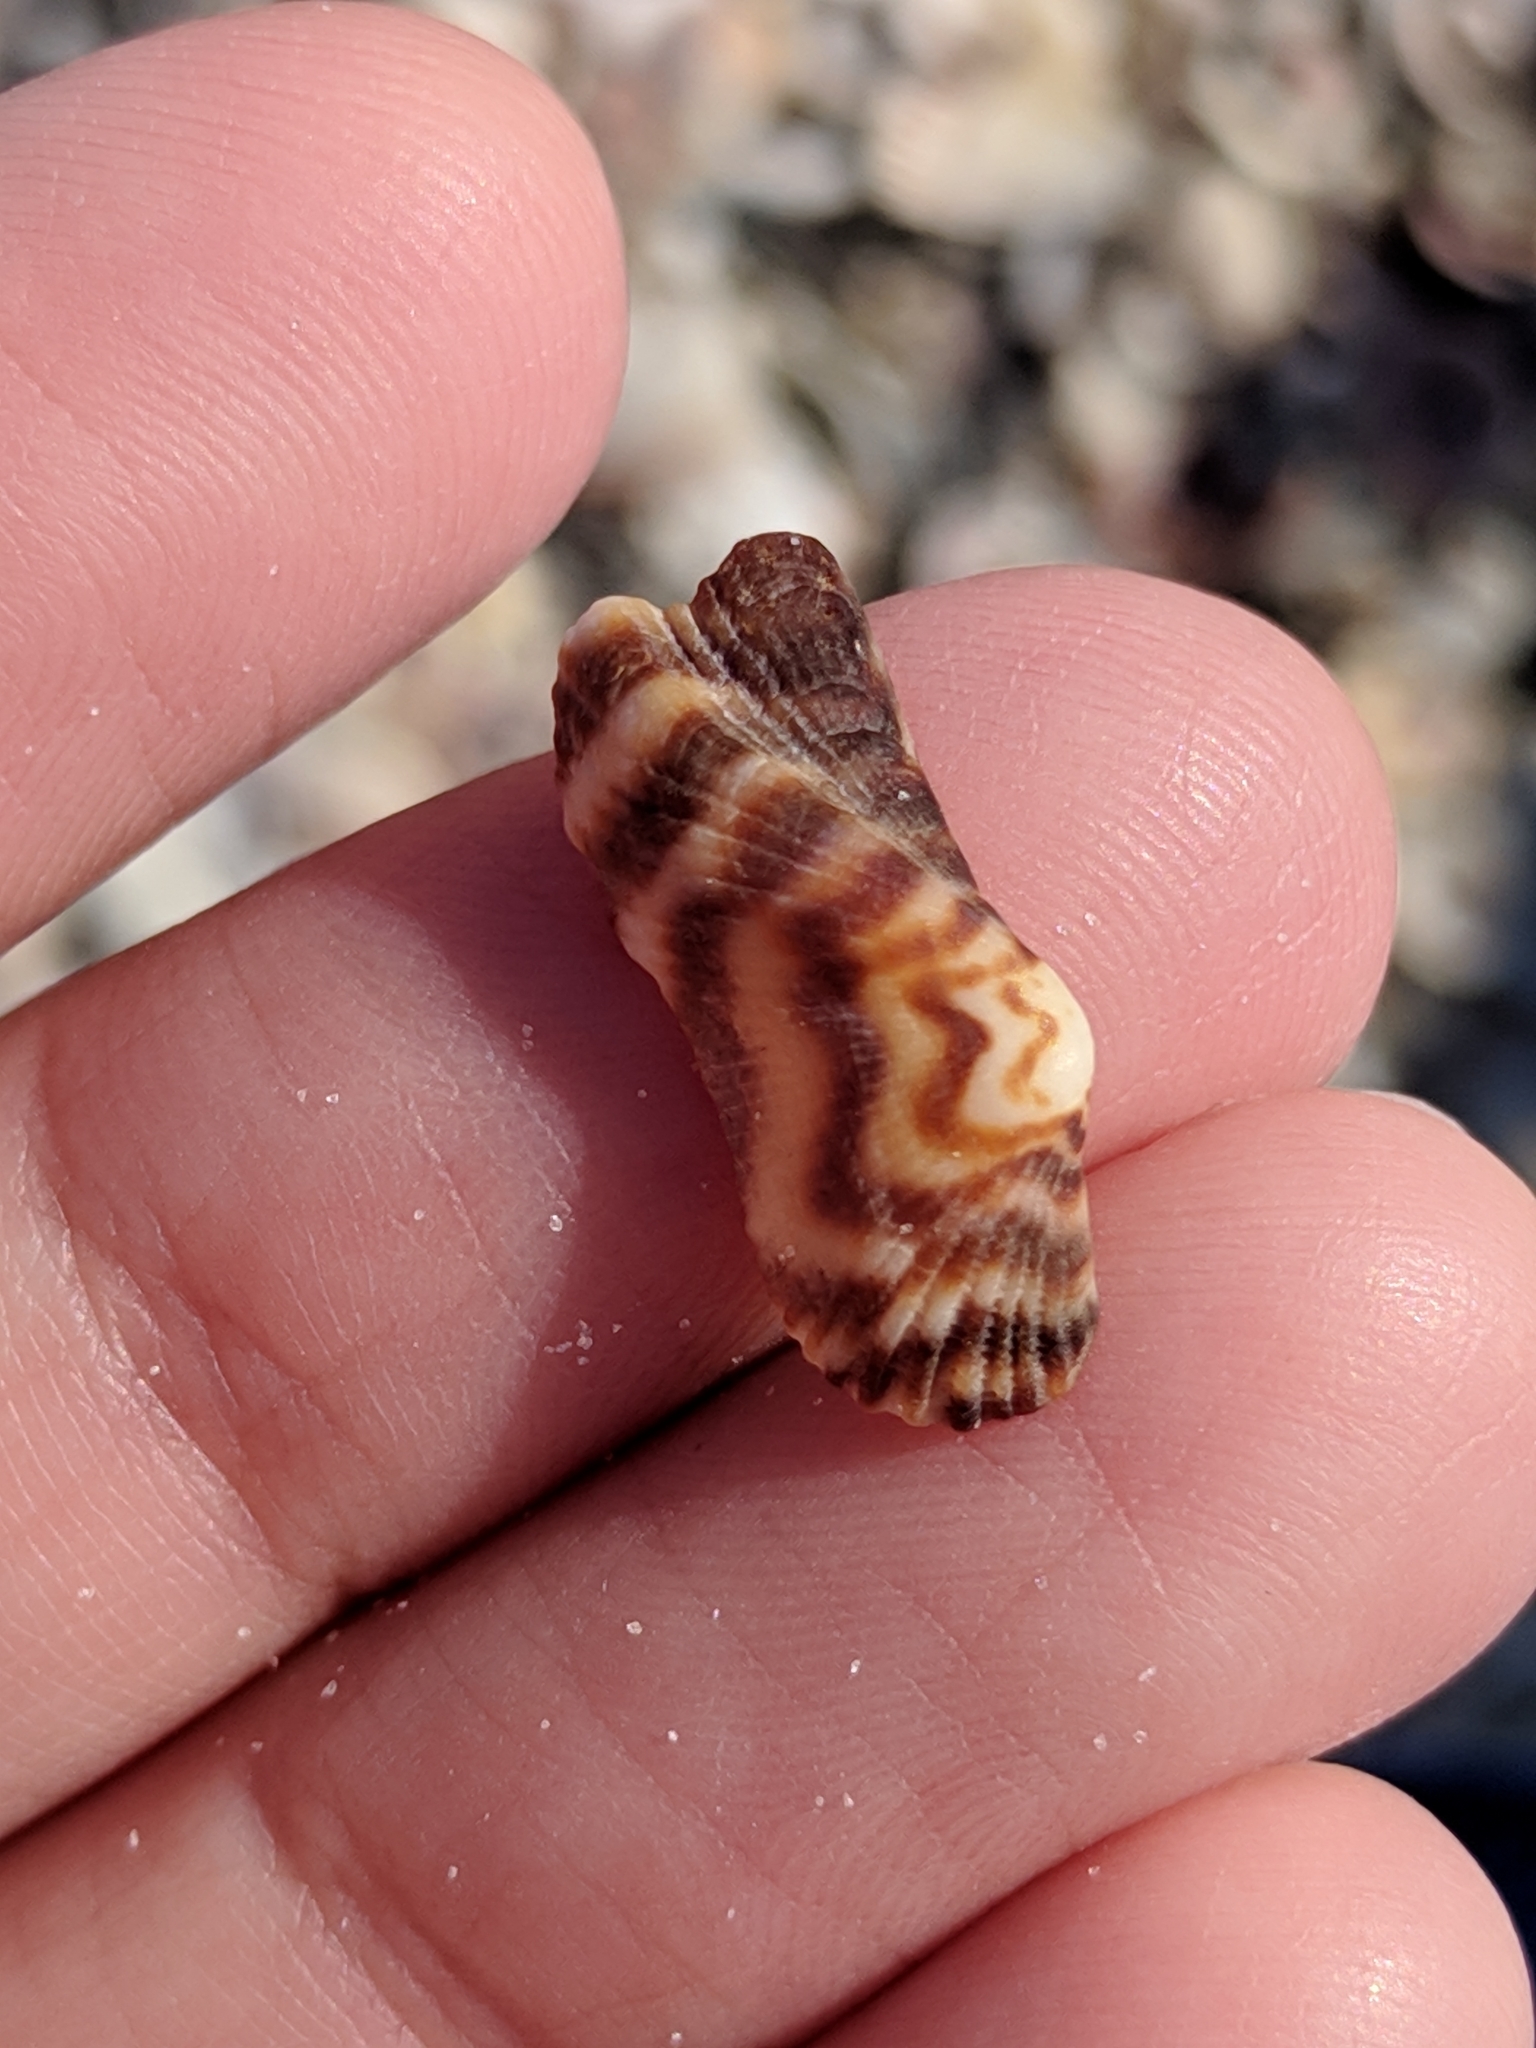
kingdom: Animalia
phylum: Mollusca
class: Bivalvia
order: Arcida
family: Arcidae
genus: Arca
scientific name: Arca zebra
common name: Atlantic turkey wing
